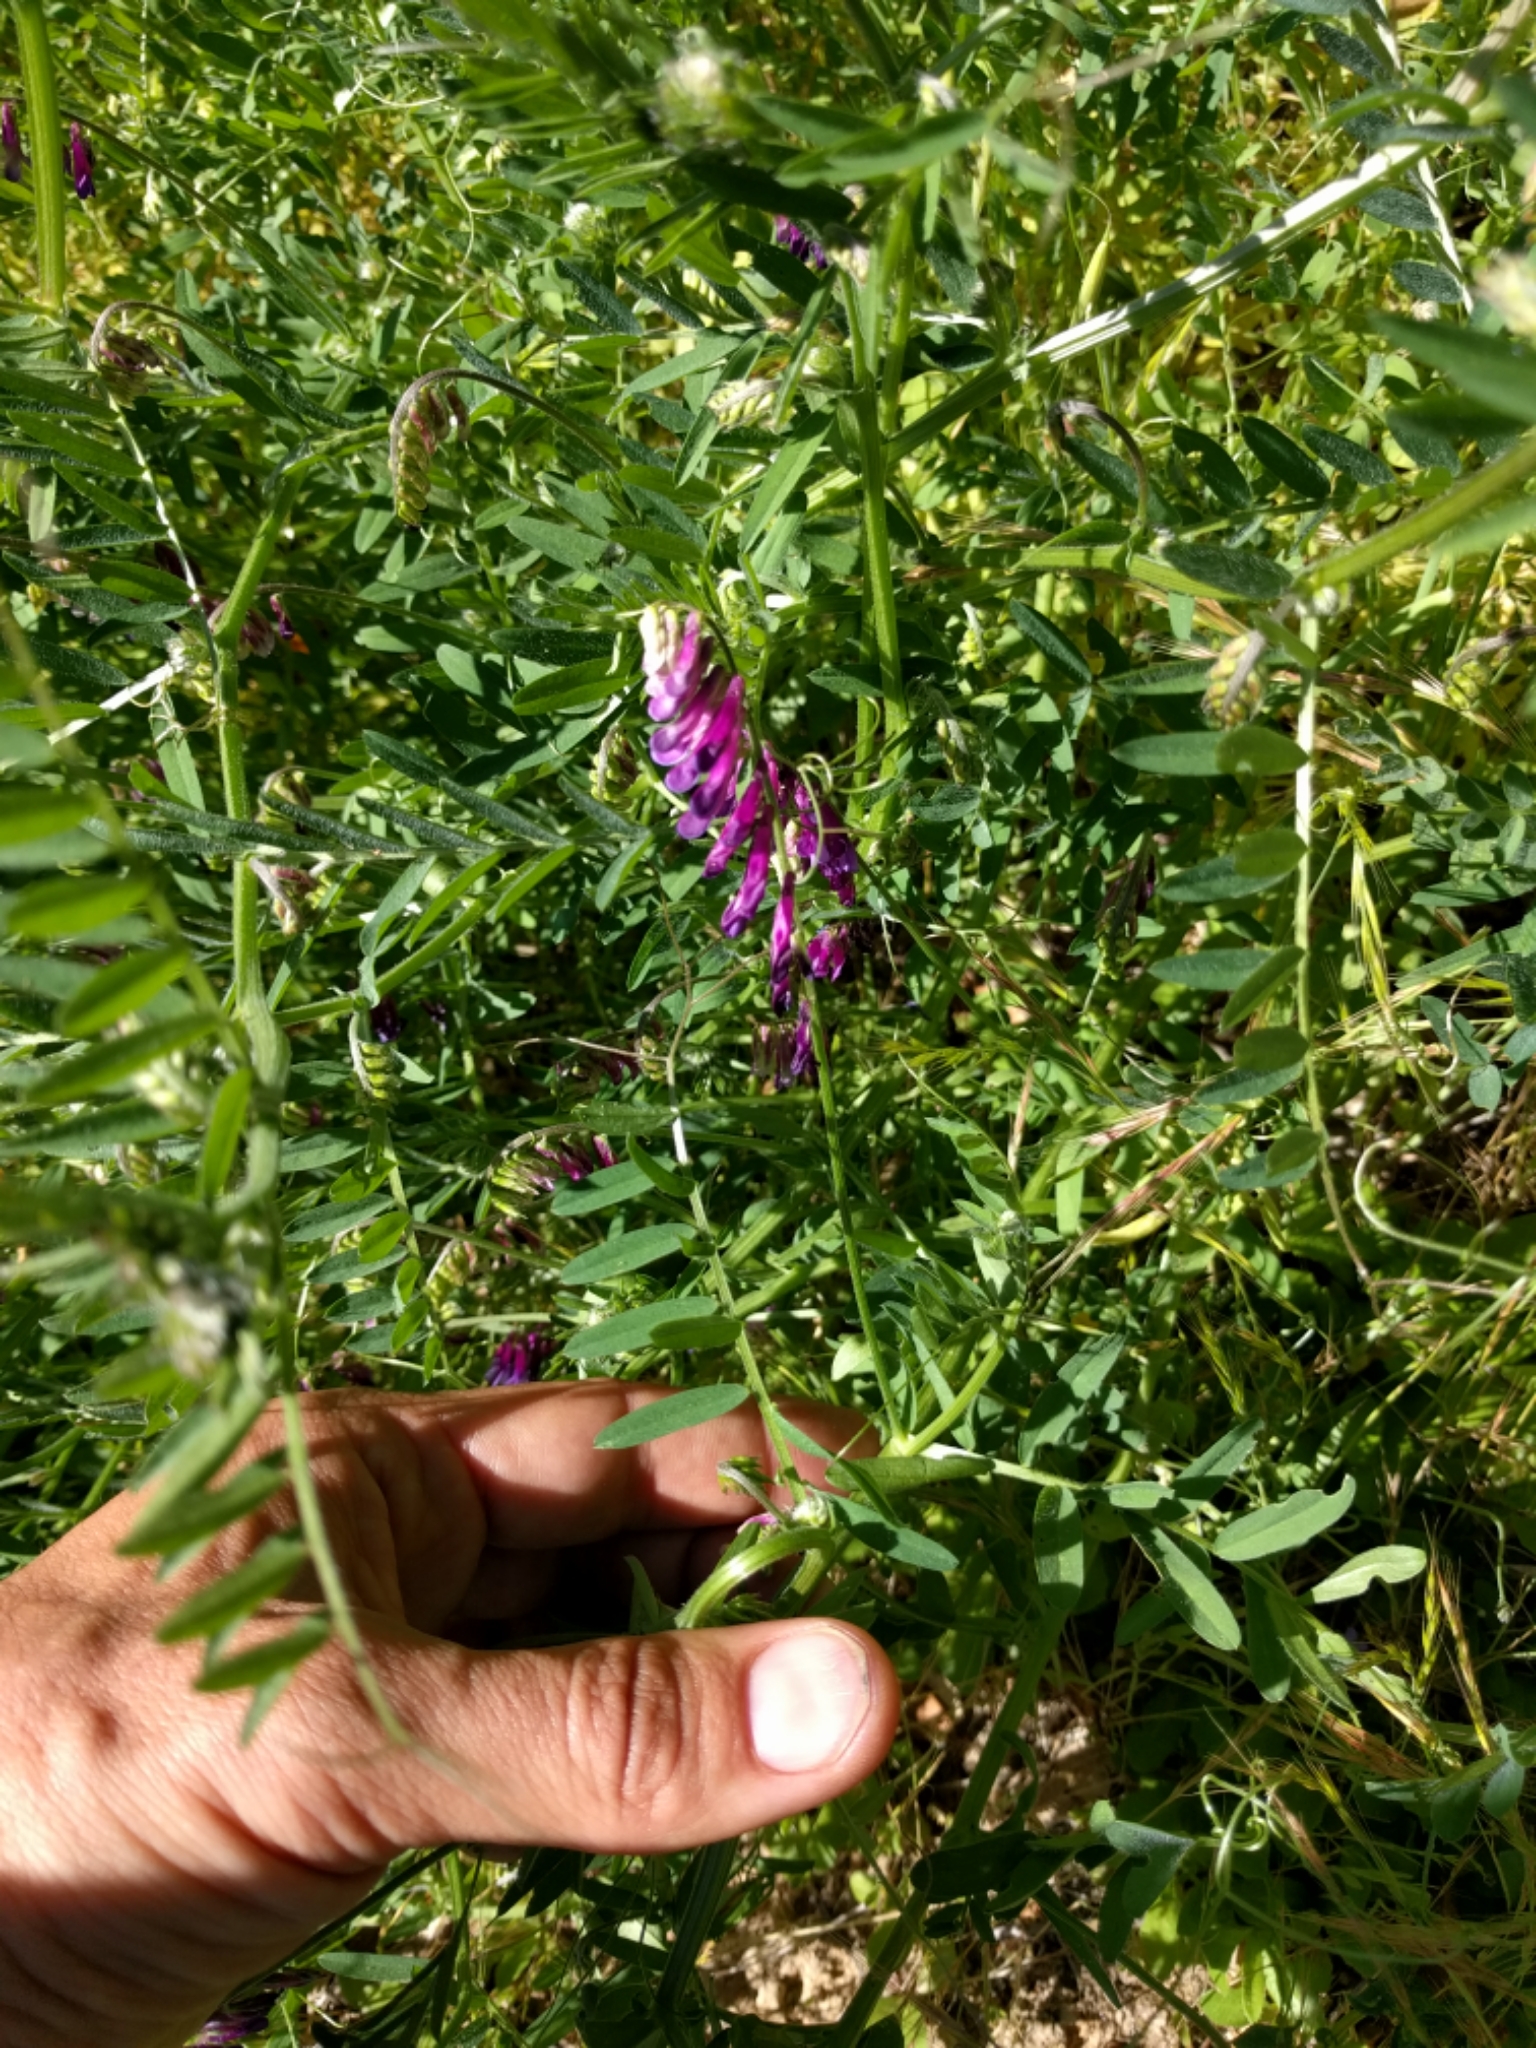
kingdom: Plantae
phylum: Tracheophyta
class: Magnoliopsida
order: Fabales
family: Fabaceae
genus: Vicia
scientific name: Vicia villosa
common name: Fodder vetch
